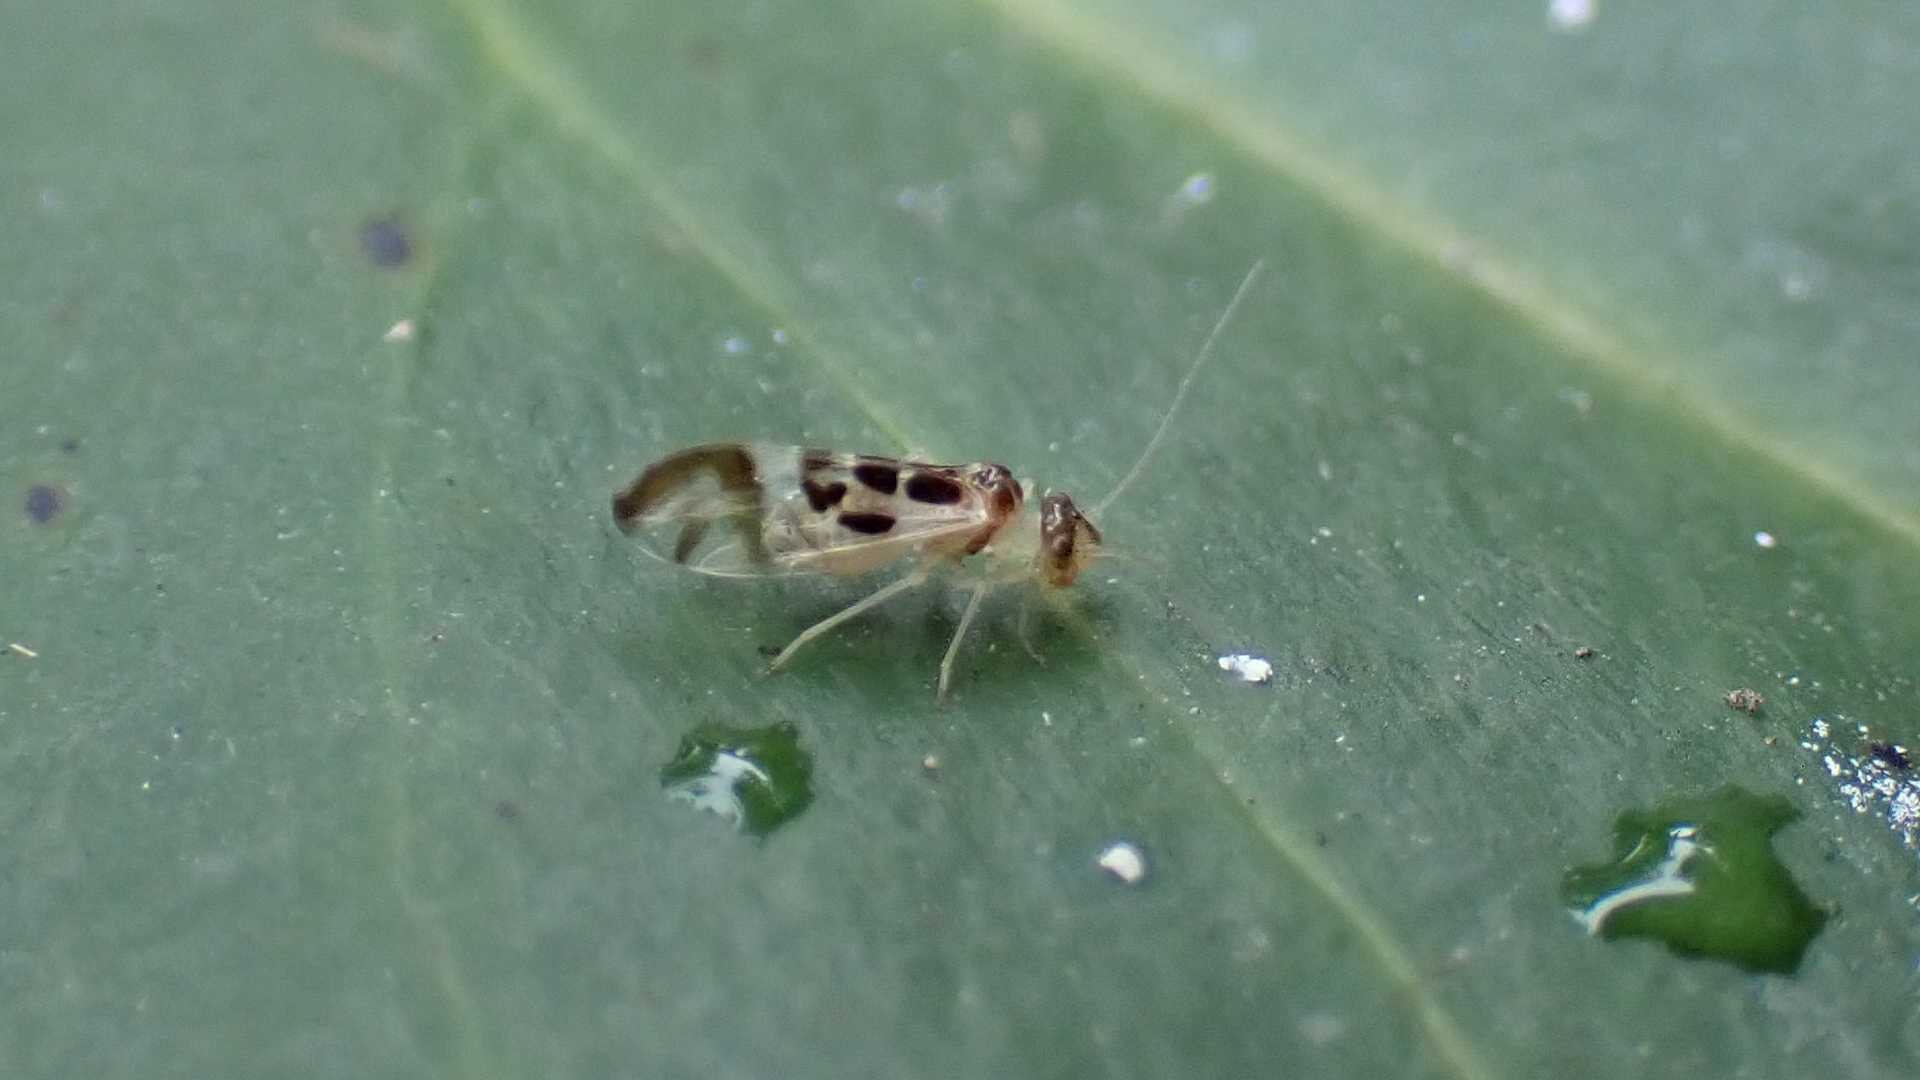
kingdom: Animalia
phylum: Arthropoda
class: Insecta
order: Psocodea
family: Stenopsocidae
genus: Graphopsocus
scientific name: Graphopsocus cruciatus
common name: Lizard bark louse
